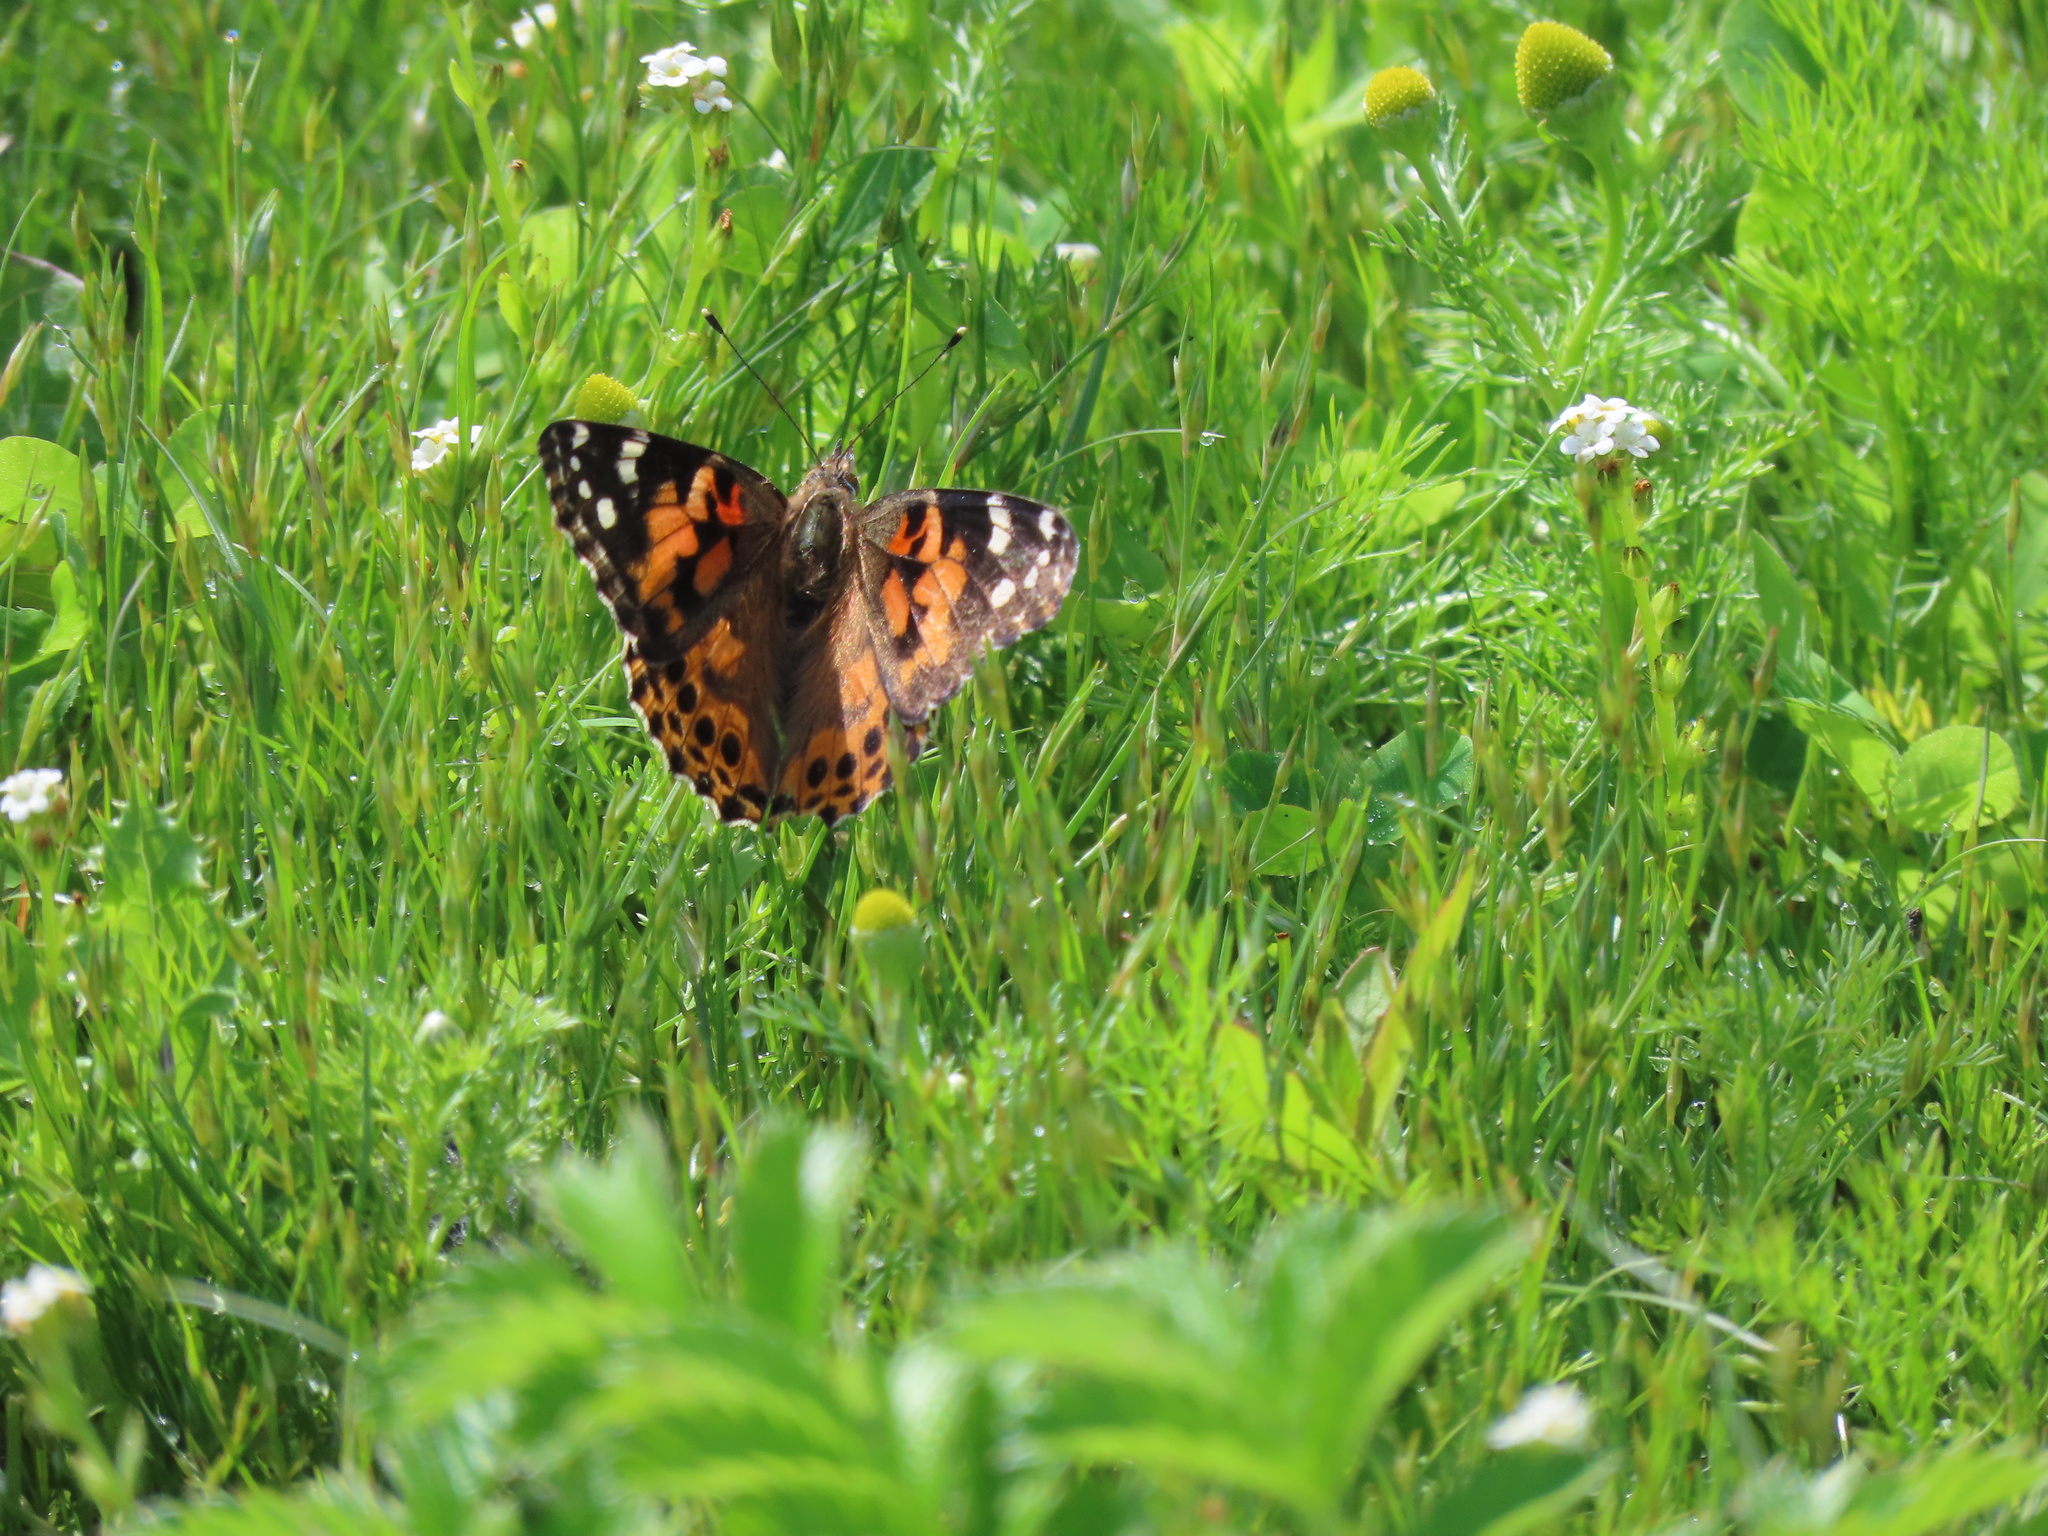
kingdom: Animalia
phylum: Arthropoda
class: Insecta
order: Lepidoptera
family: Nymphalidae
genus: Vanessa
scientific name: Vanessa cardui
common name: Painted lady
